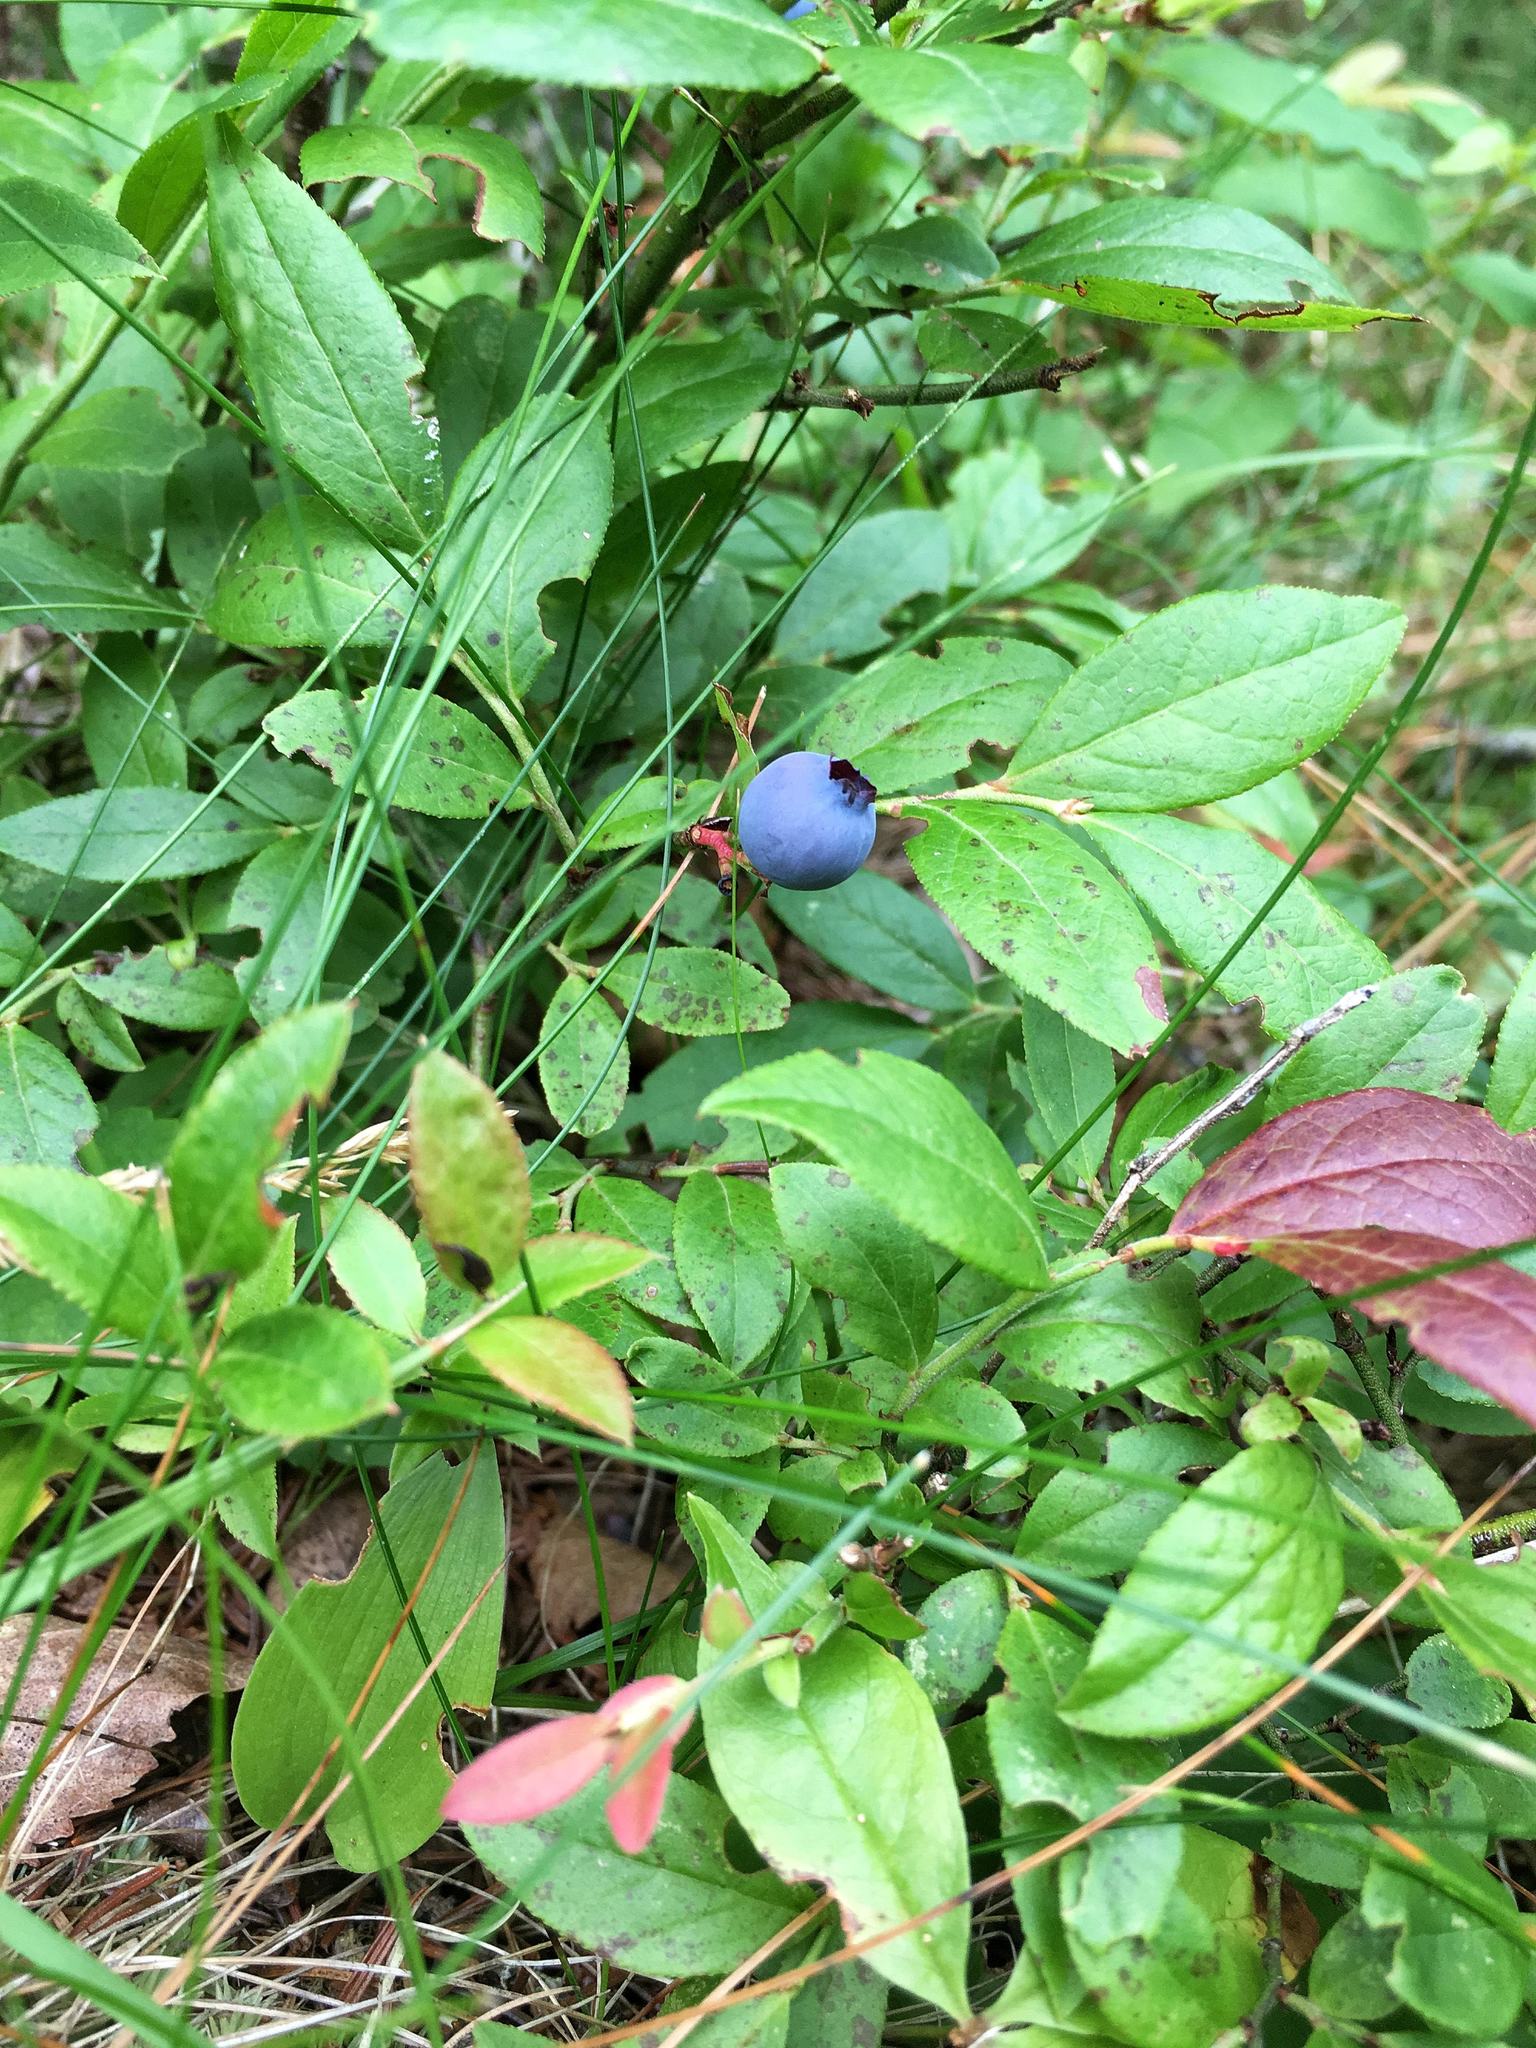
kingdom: Plantae
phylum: Tracheophyta
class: Magnoliopsida
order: Ericales
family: Ericaceae
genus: Vaccinium
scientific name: Vaccinium angustifolium
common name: Early lowbush blueberry
